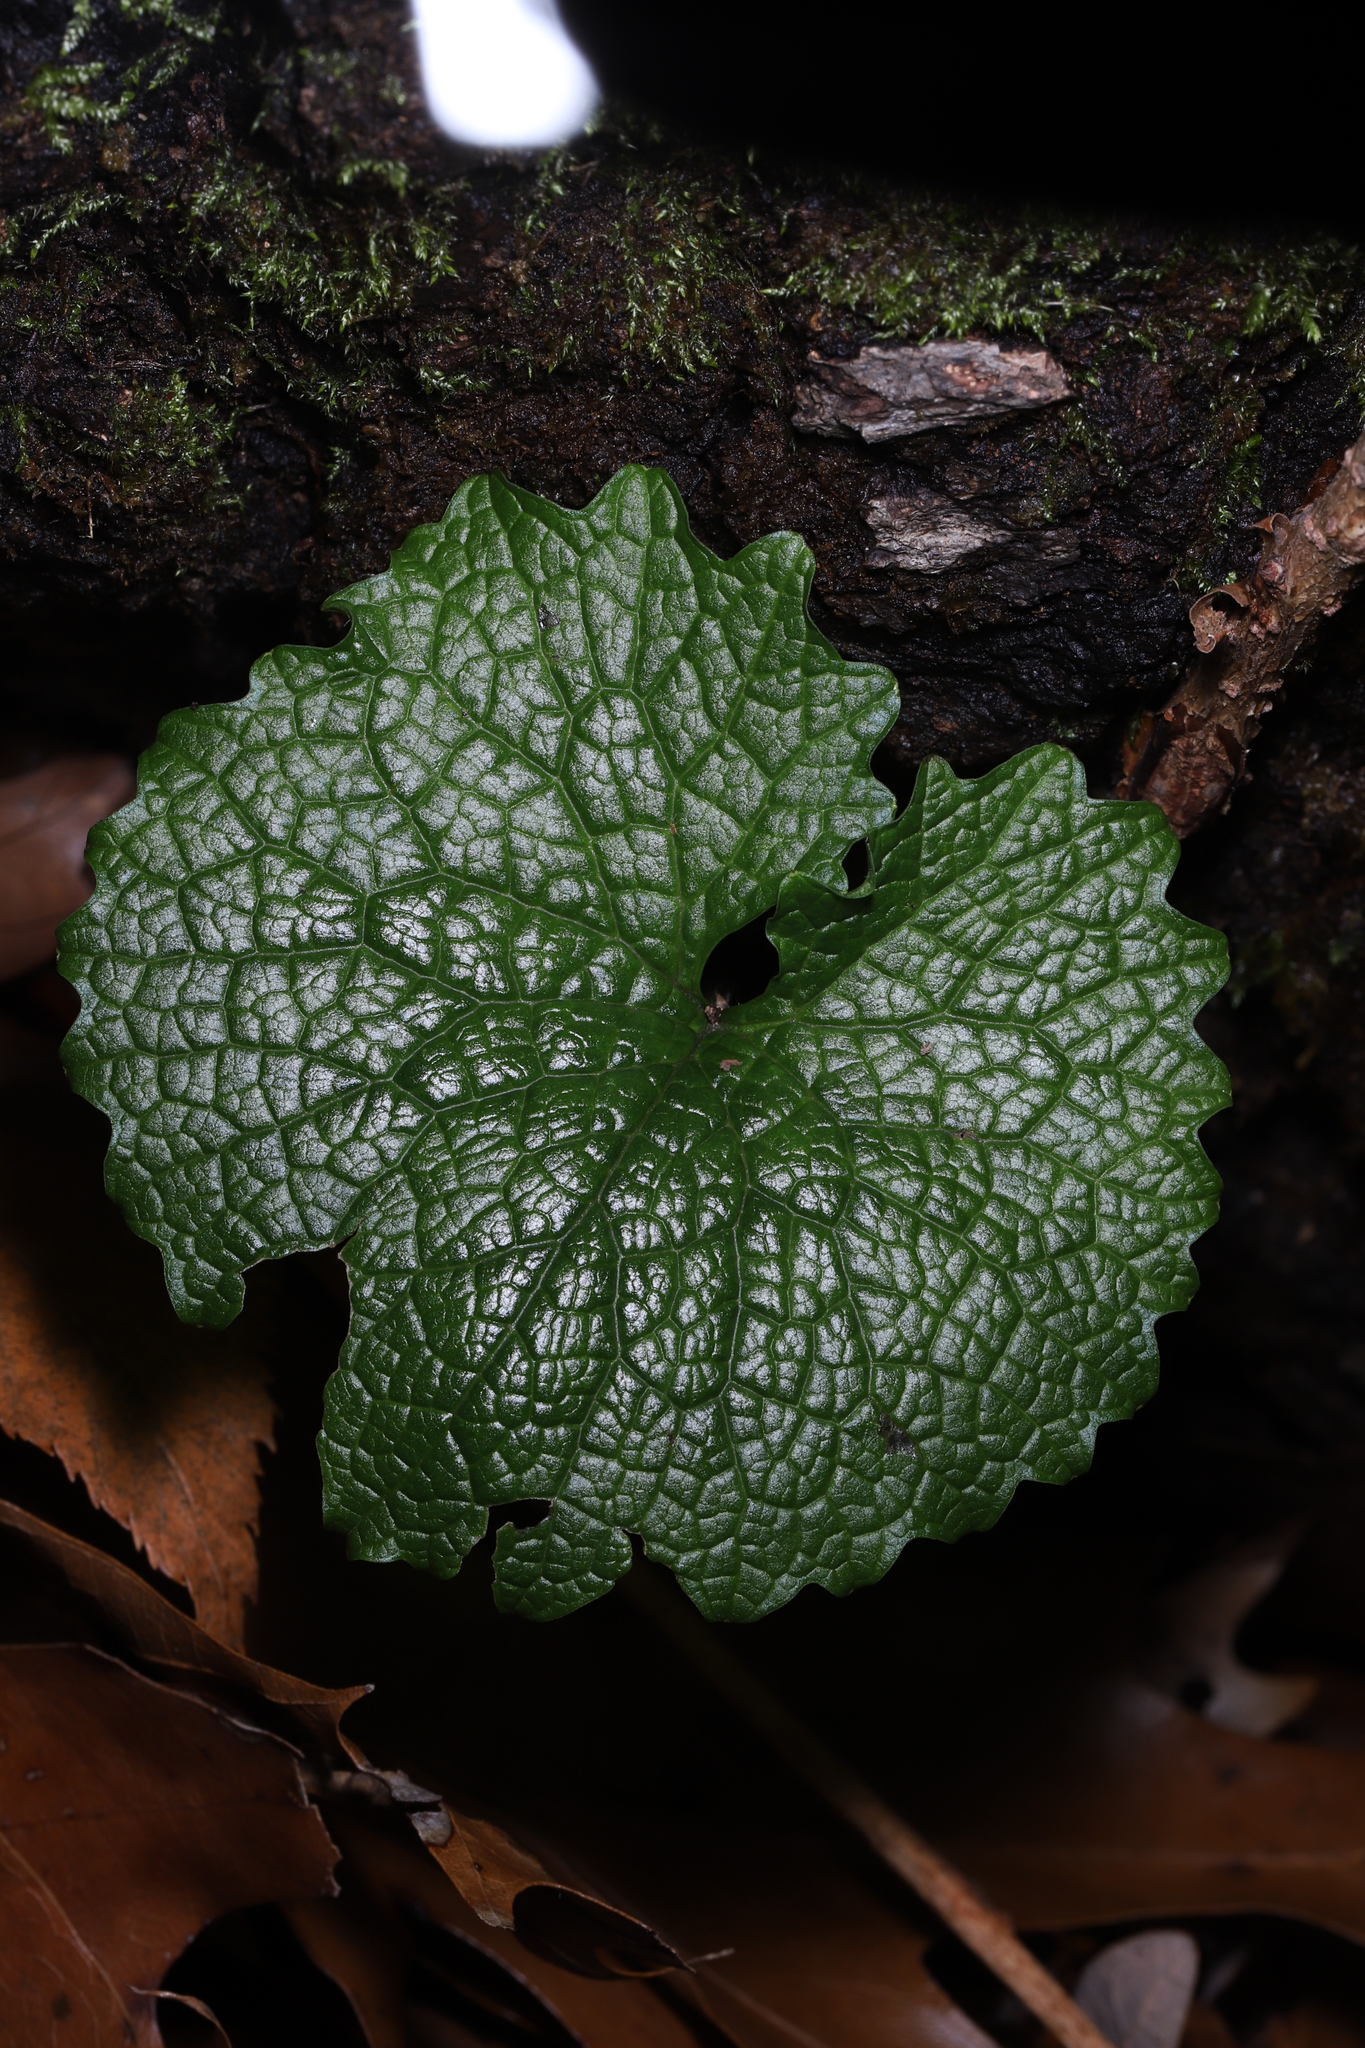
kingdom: Plantae
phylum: Tracheophyta
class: Magnoliopsida
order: Brassicales
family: Brassicaceae
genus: Alliaria
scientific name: Alliaria petiolata
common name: Garlic mustard
